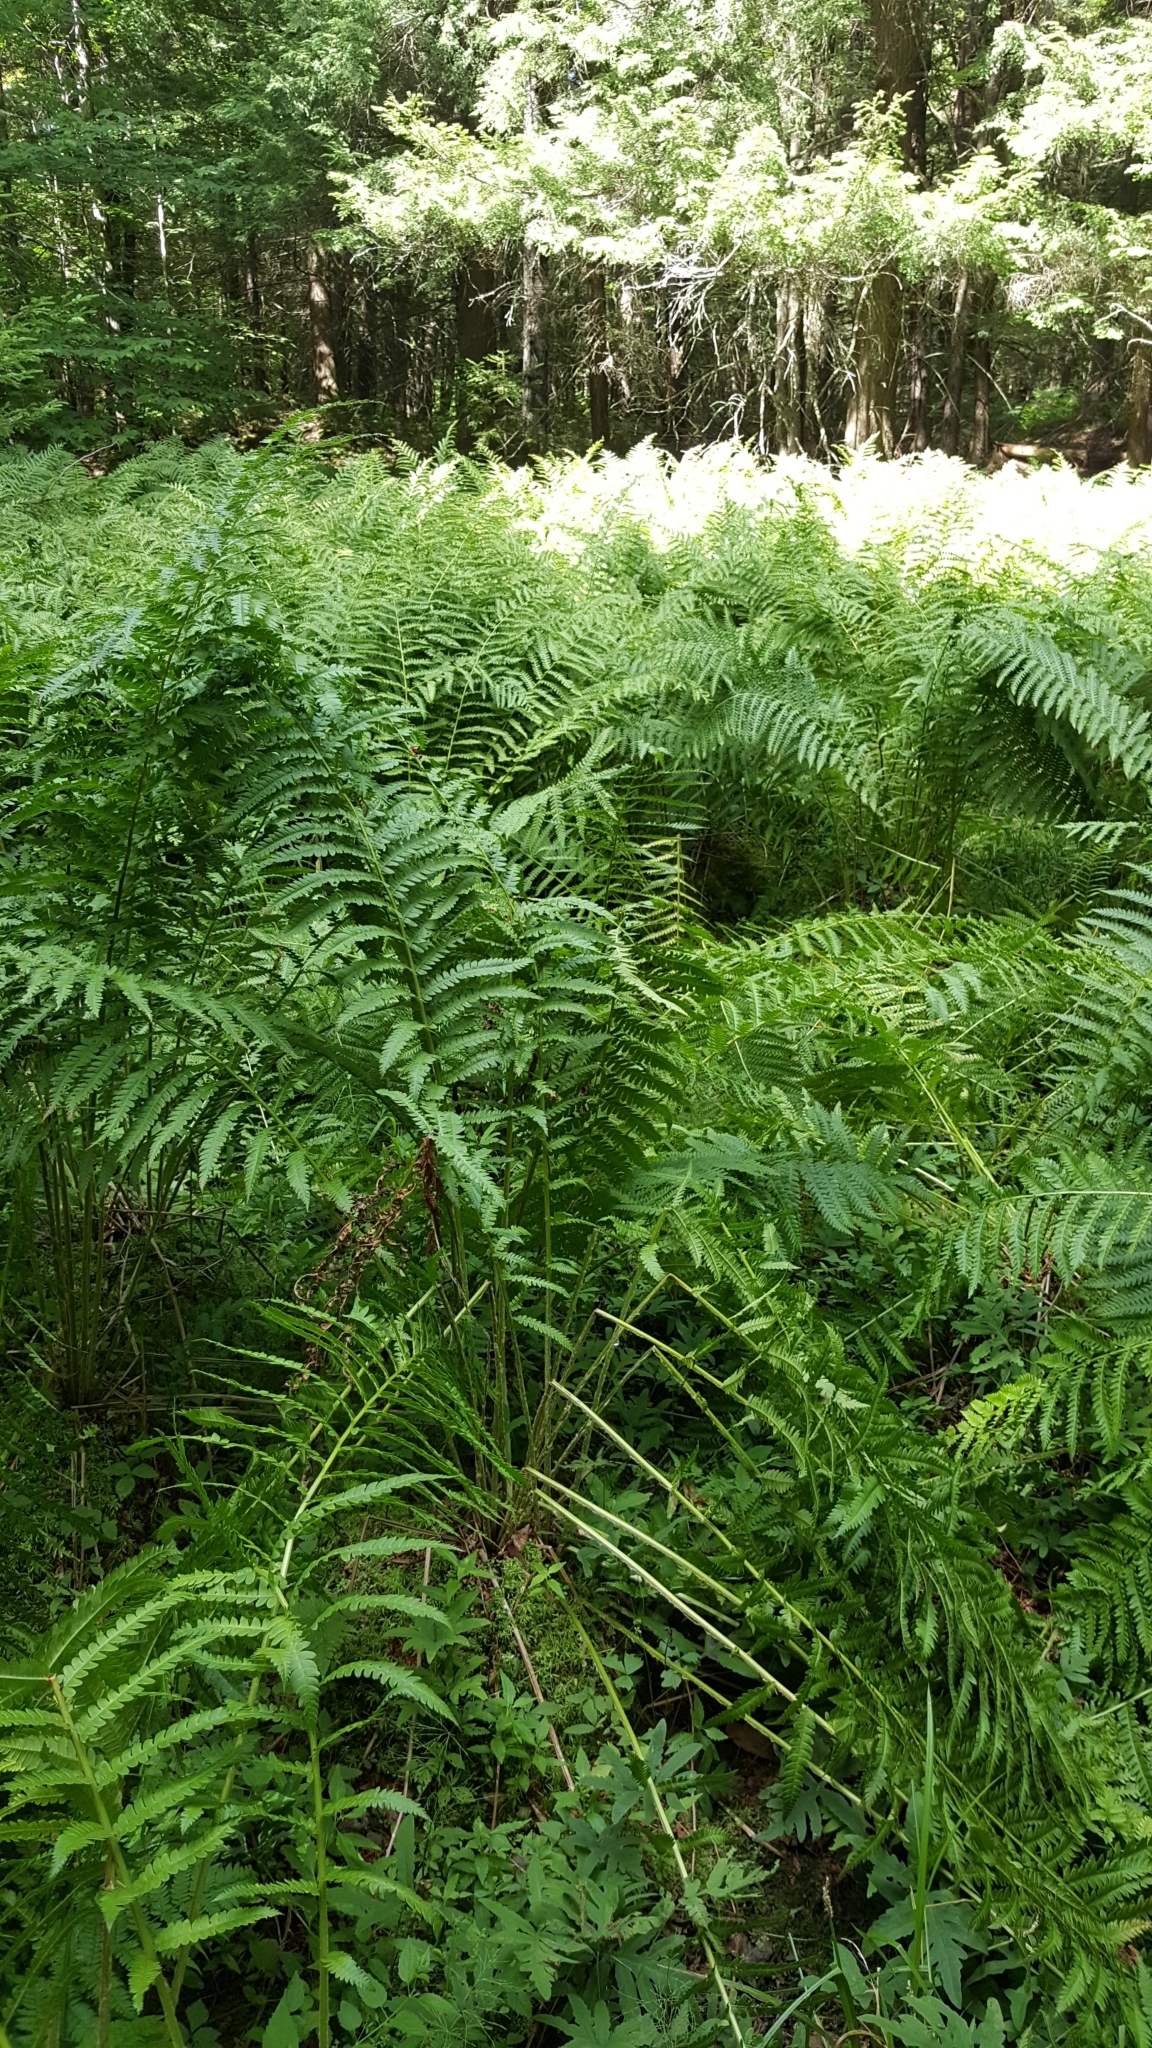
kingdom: Plantae
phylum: Tracheophyta
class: Polypodiopsida
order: Osmundales
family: Osmundaceae
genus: Osmundastrum
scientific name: Osmundastrum cinnamomeum
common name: Cinnamon fern
